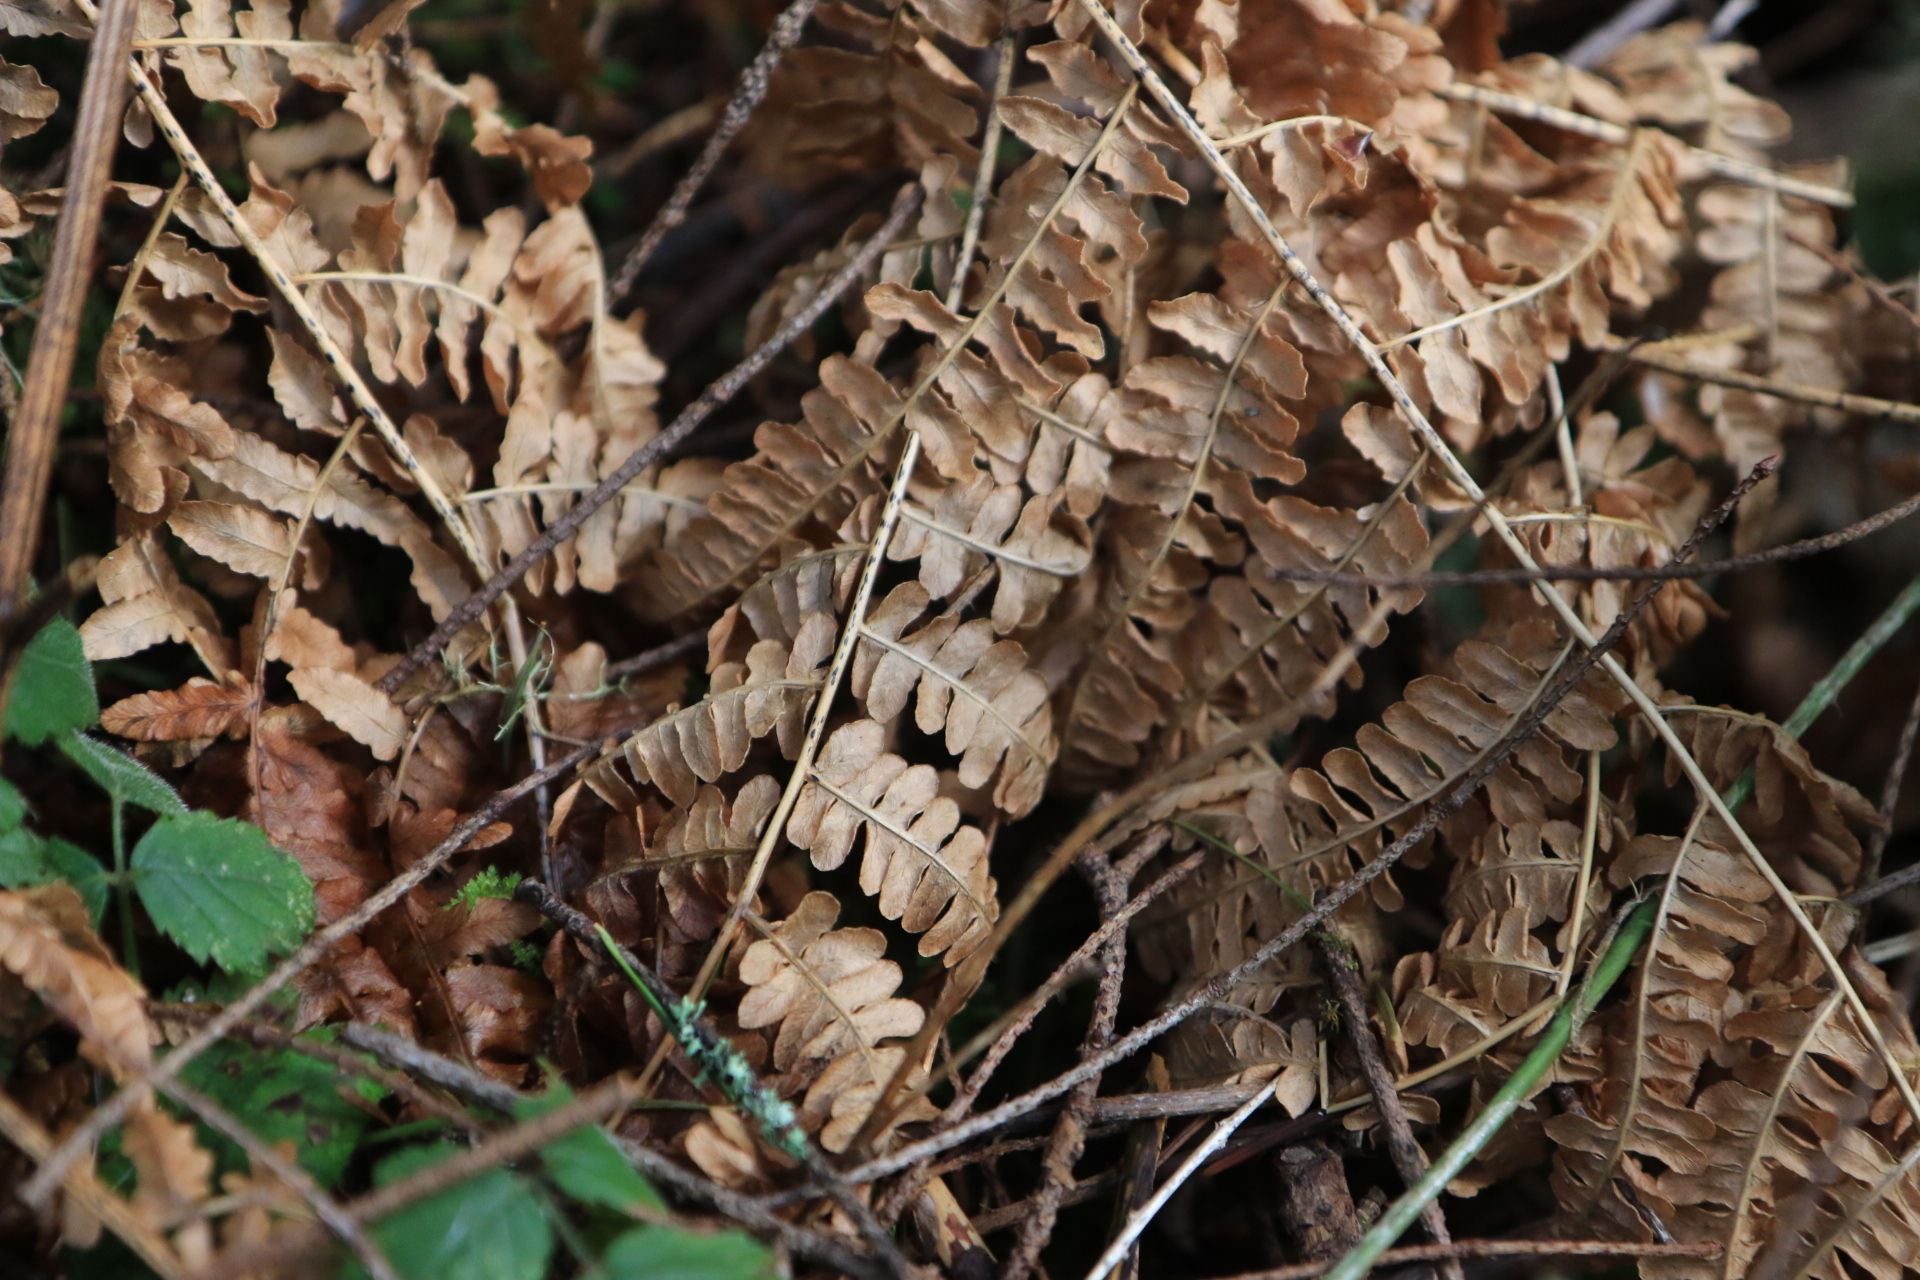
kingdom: Plantae
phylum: Tracheophyta
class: Polypodiopsida
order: Polypodiales
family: Dennstaedtiaceae
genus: Pteridium
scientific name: Pteridium aquilinum
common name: Bracken
